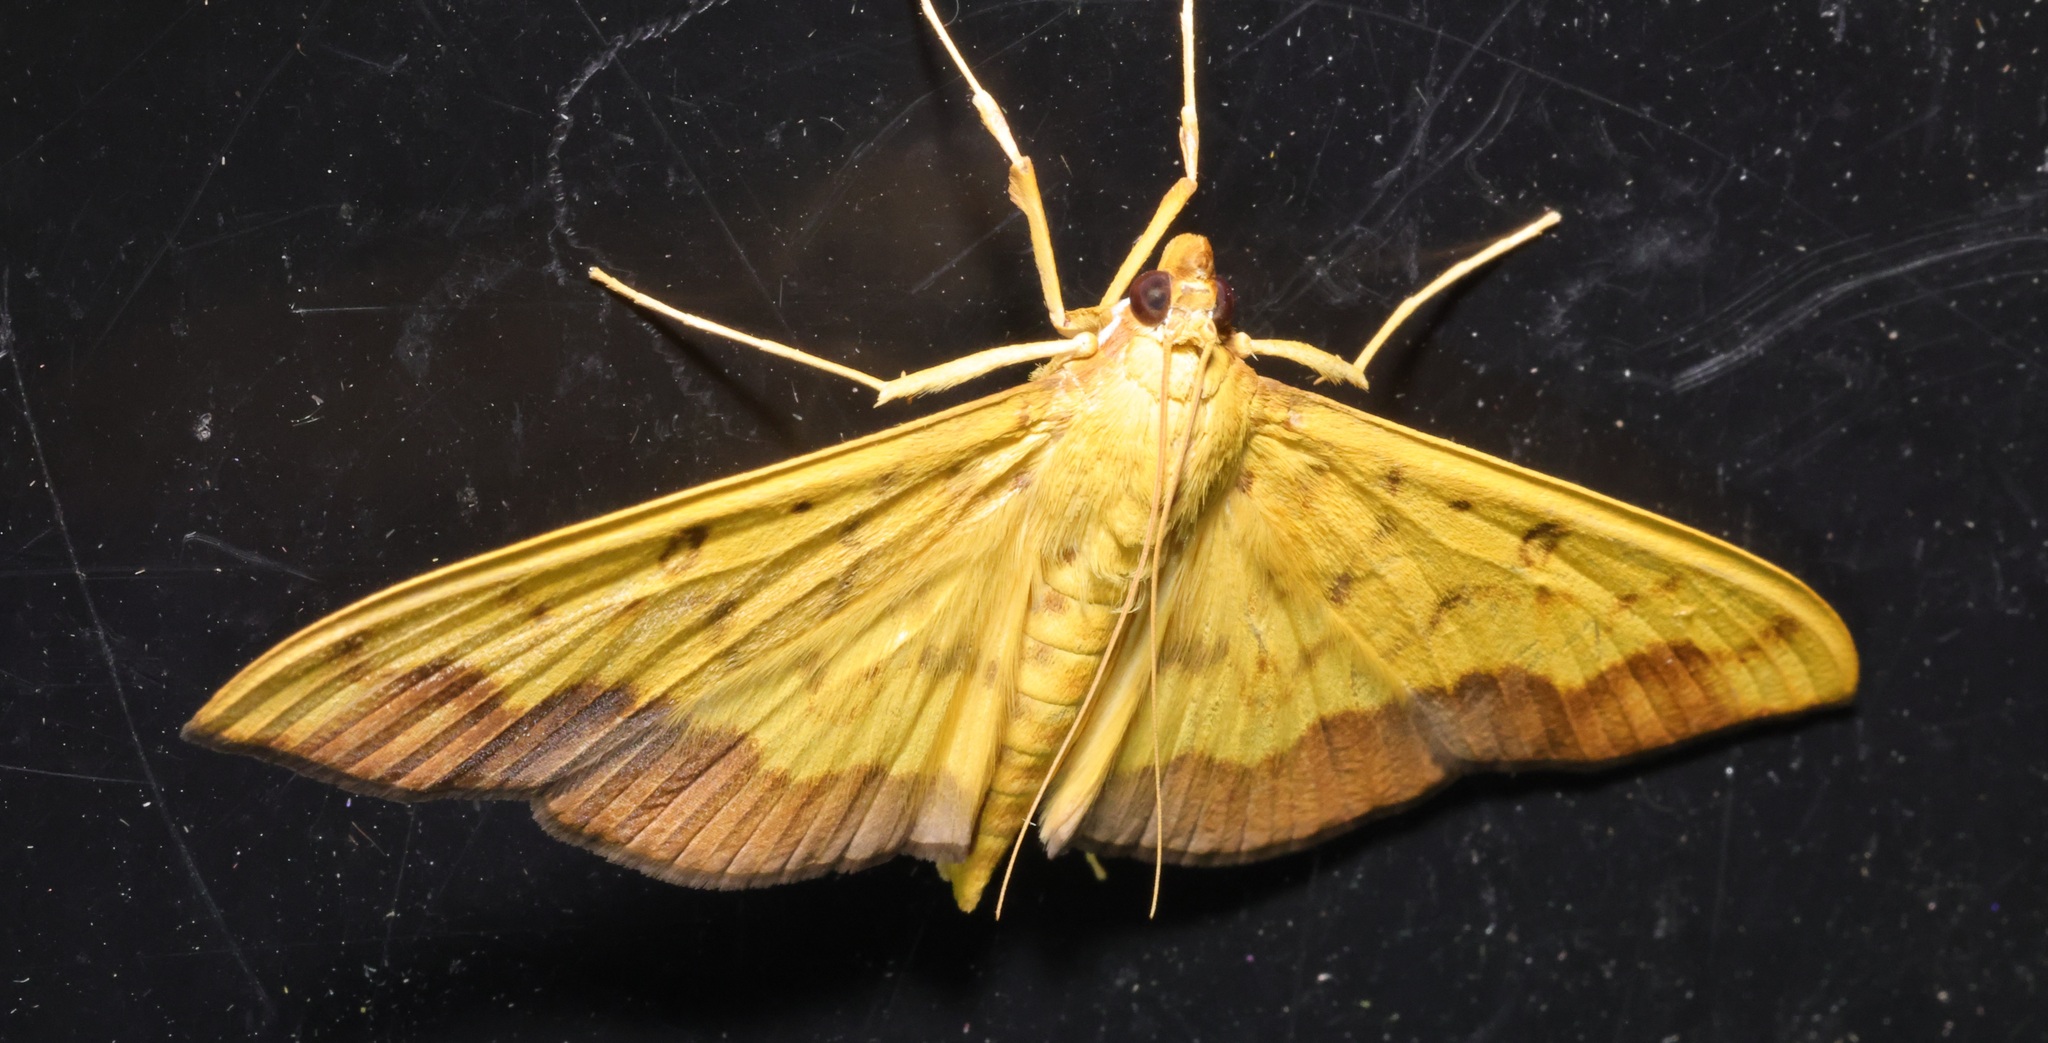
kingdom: Animalia
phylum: Arthropoda
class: Insecta
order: Lepidoptera
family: Crambidae
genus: Botyodes
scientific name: Botyodes asialis
